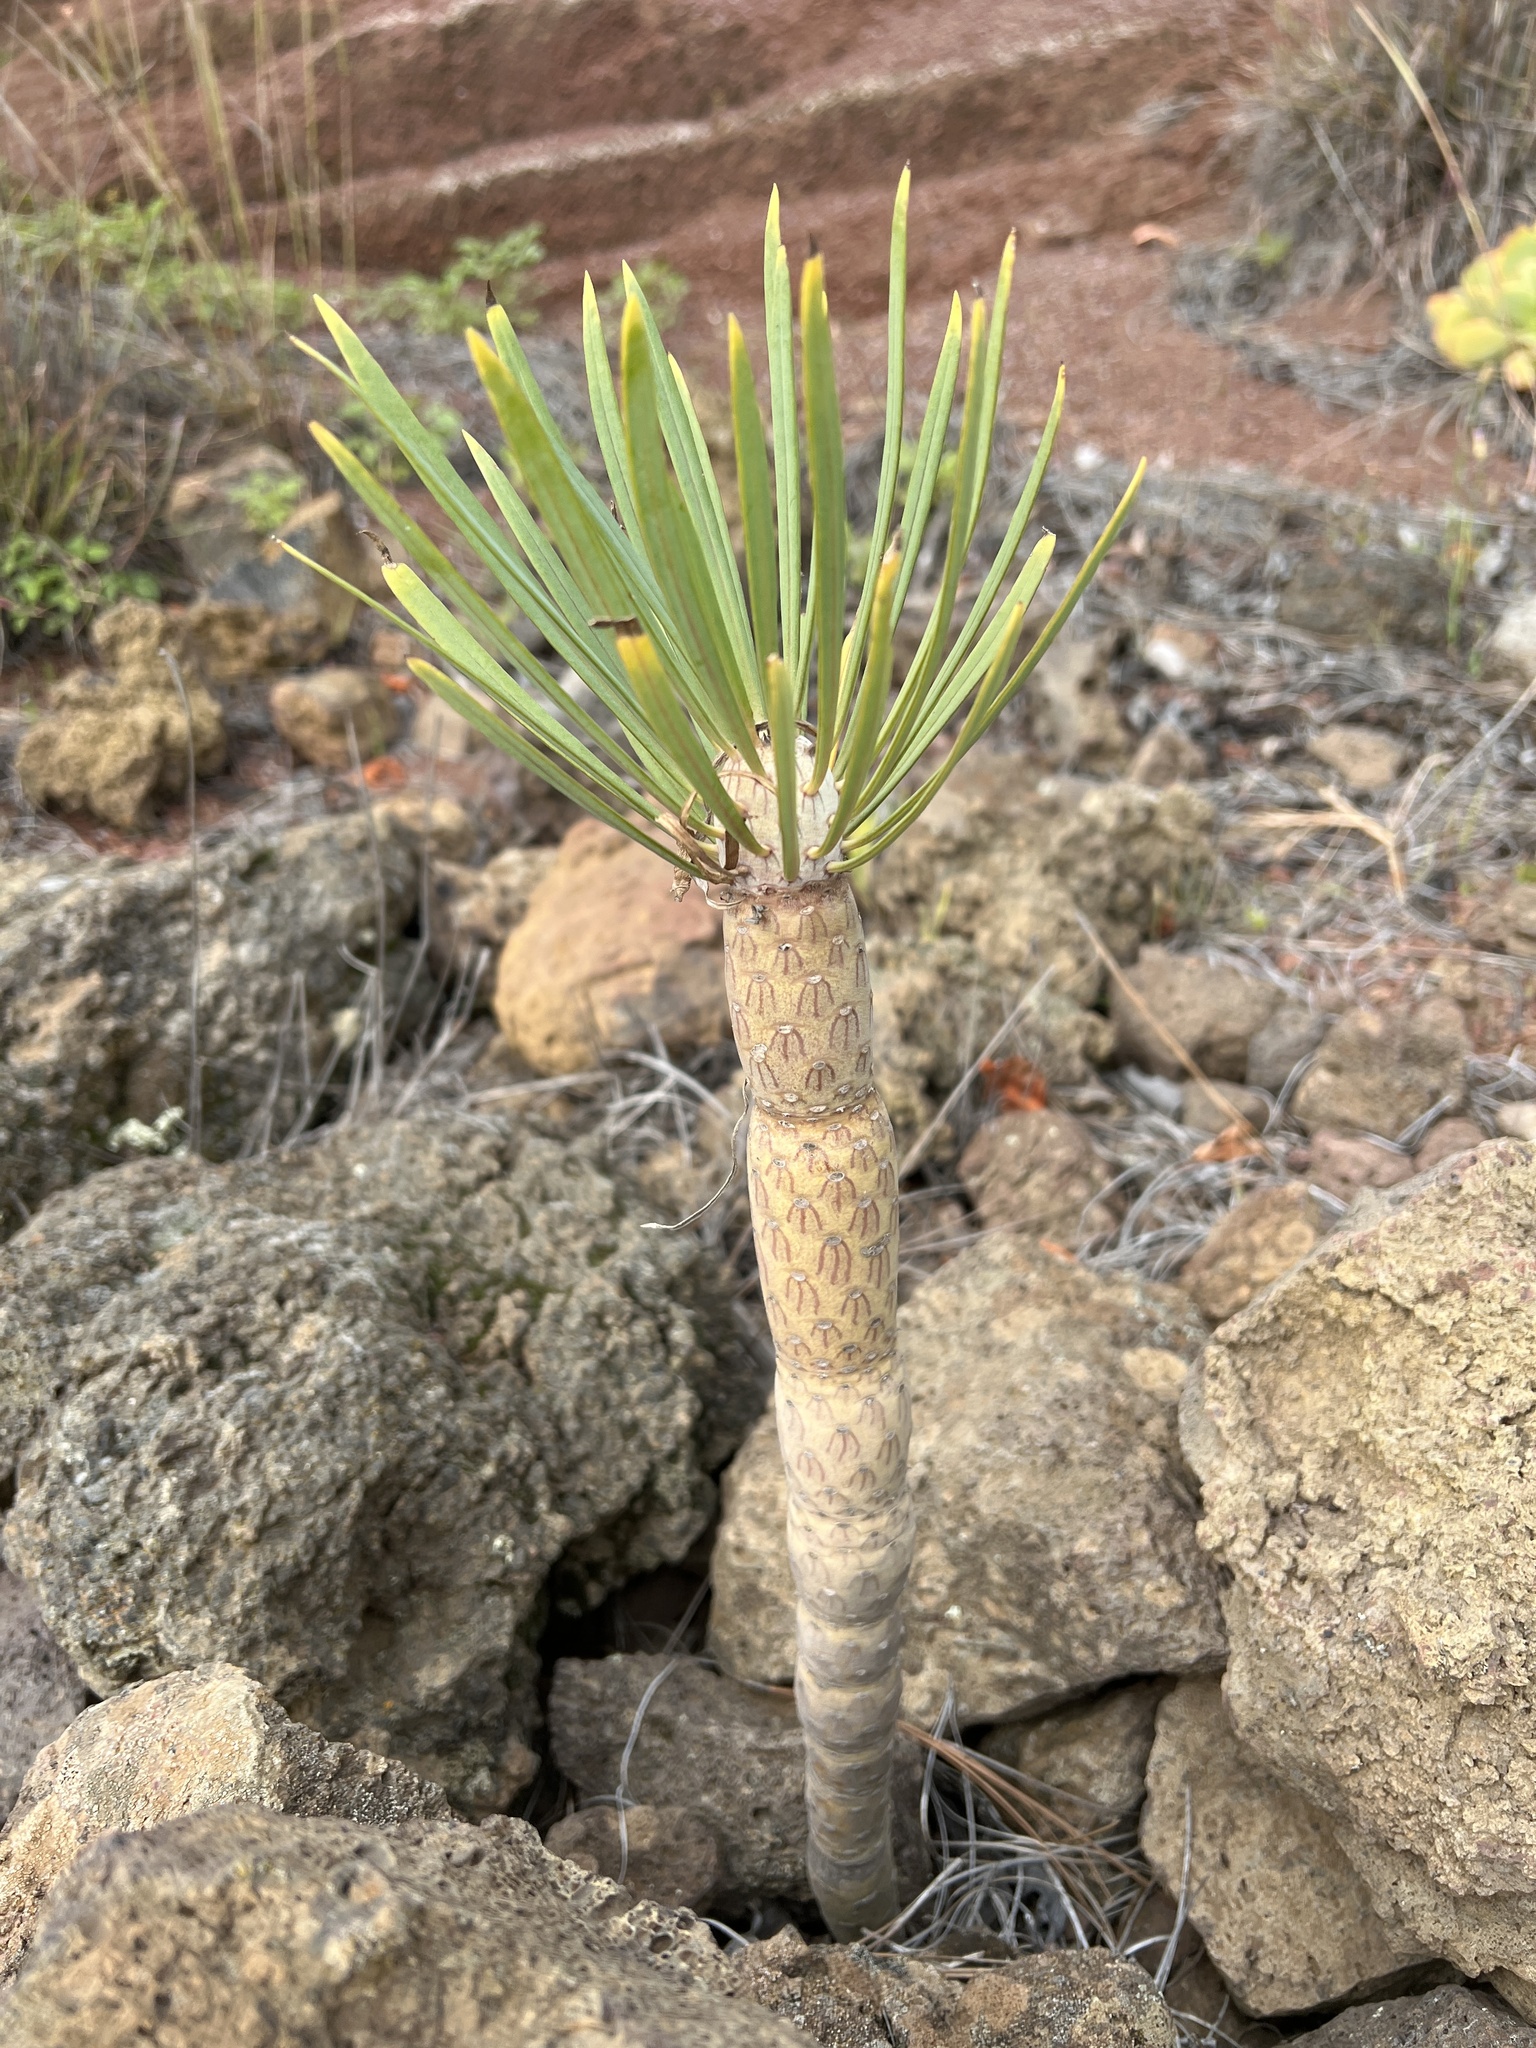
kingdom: Plantae
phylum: Tracheophyta
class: Magnoliopsida
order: Asterales
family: Asteraceae
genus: Kleinia
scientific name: Kleinia neriifolia
